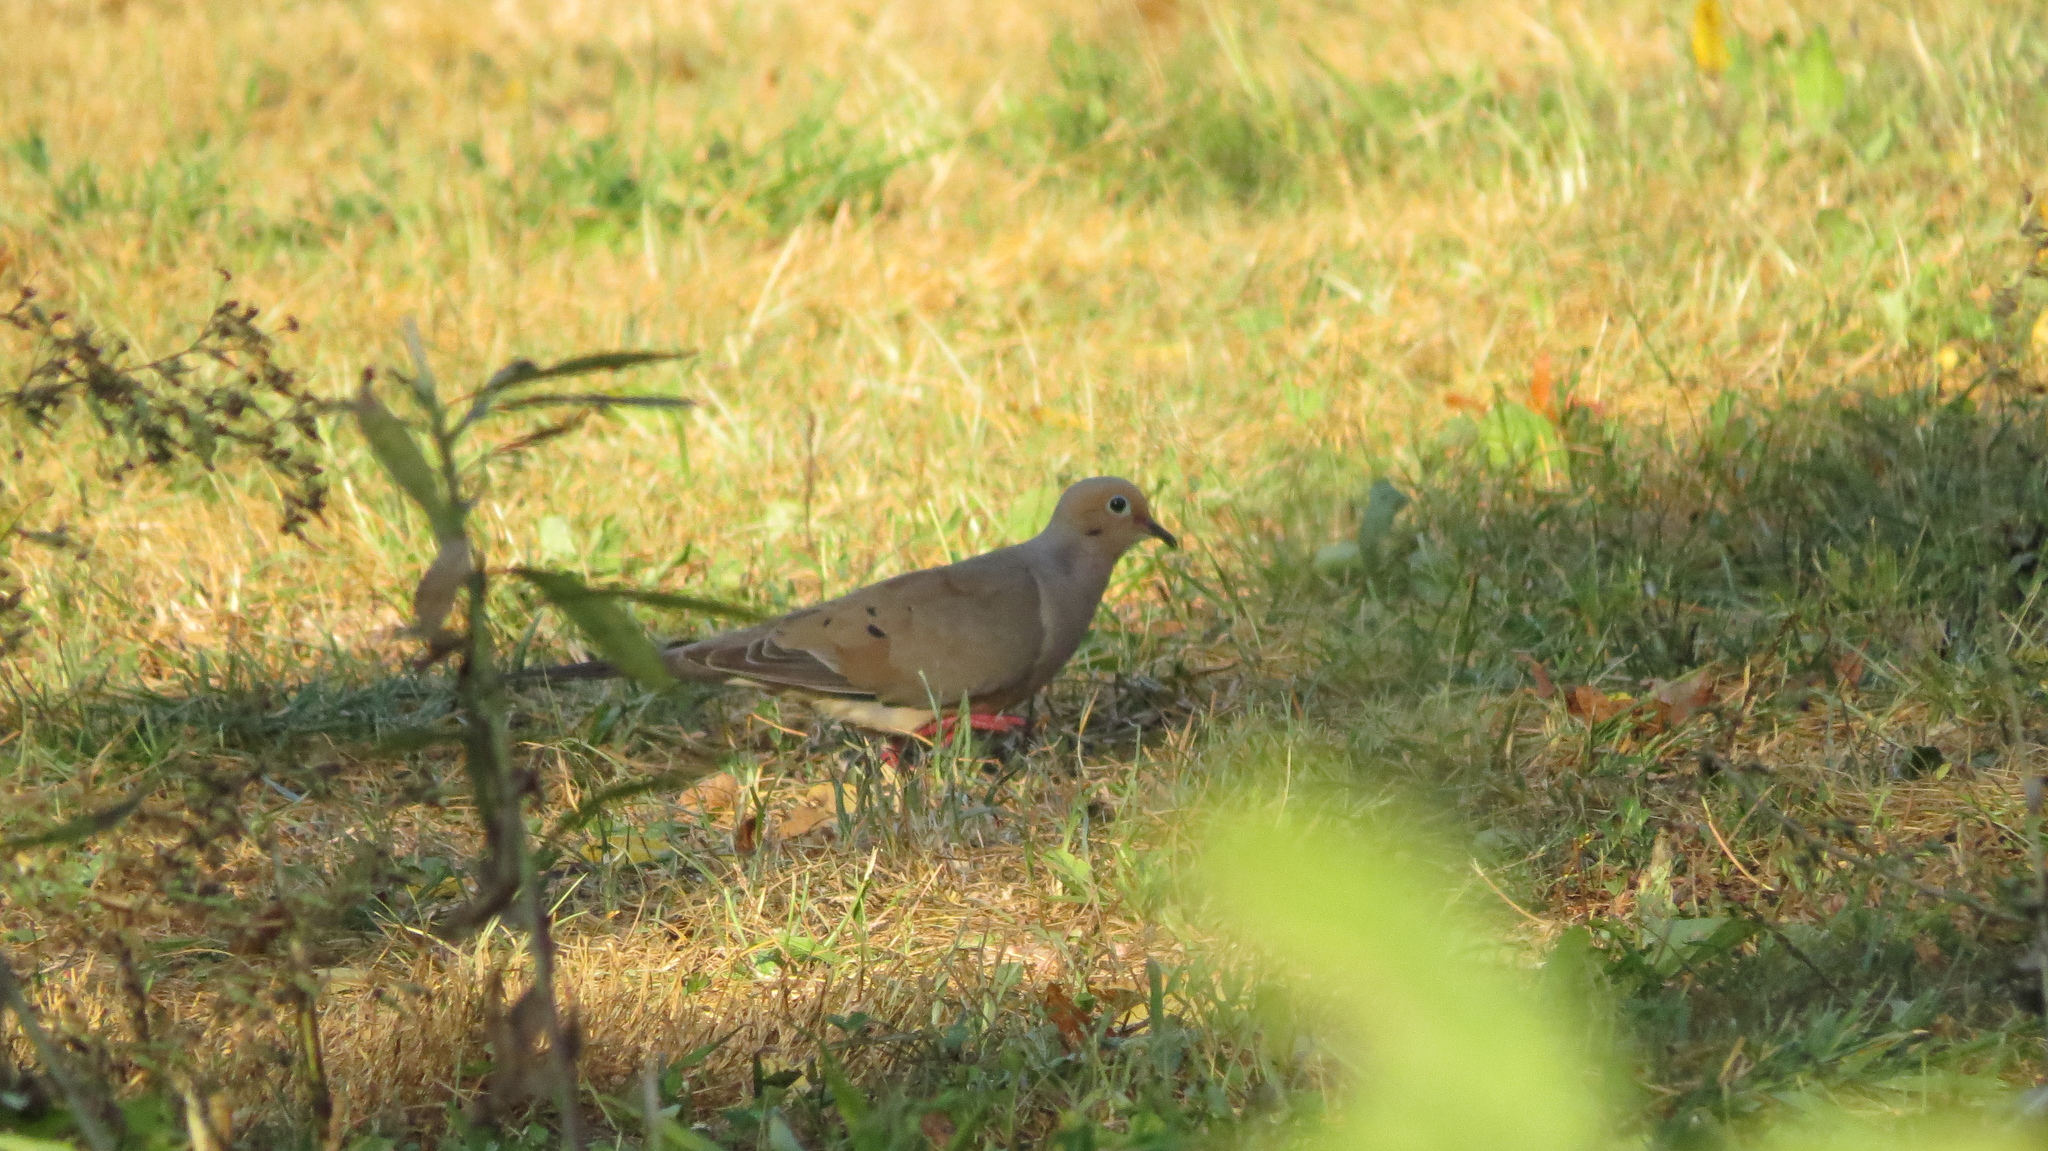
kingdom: Animalia
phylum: Chordata
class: Aves
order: Columbiformes
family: Columbidae
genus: Zenaida
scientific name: Zenaida macroura
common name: Mourning dove
